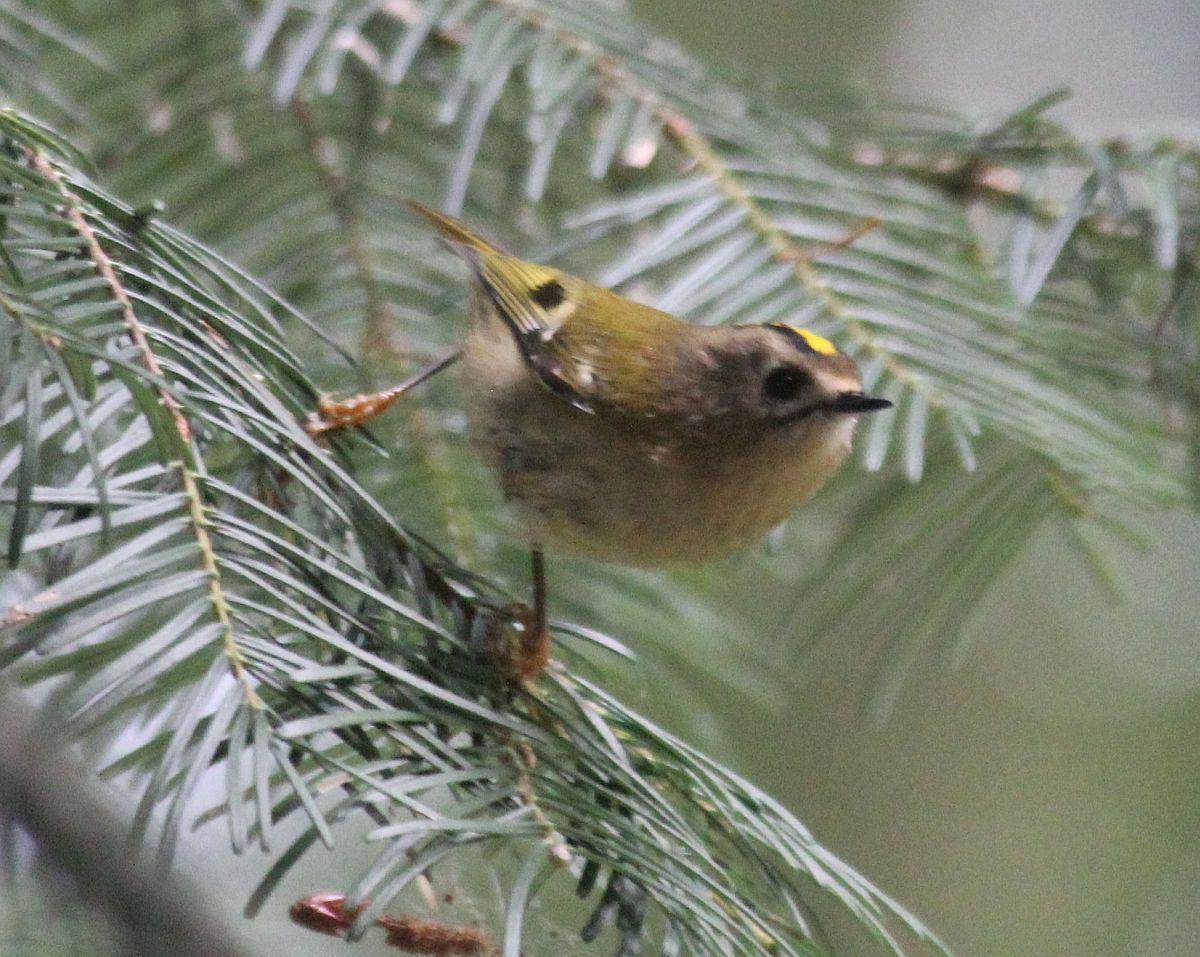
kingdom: Animalia
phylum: Chordata
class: Aves
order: Passeriformes
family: Regulidae
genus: Regulus
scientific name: Regulus regulus
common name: Goldcrest
